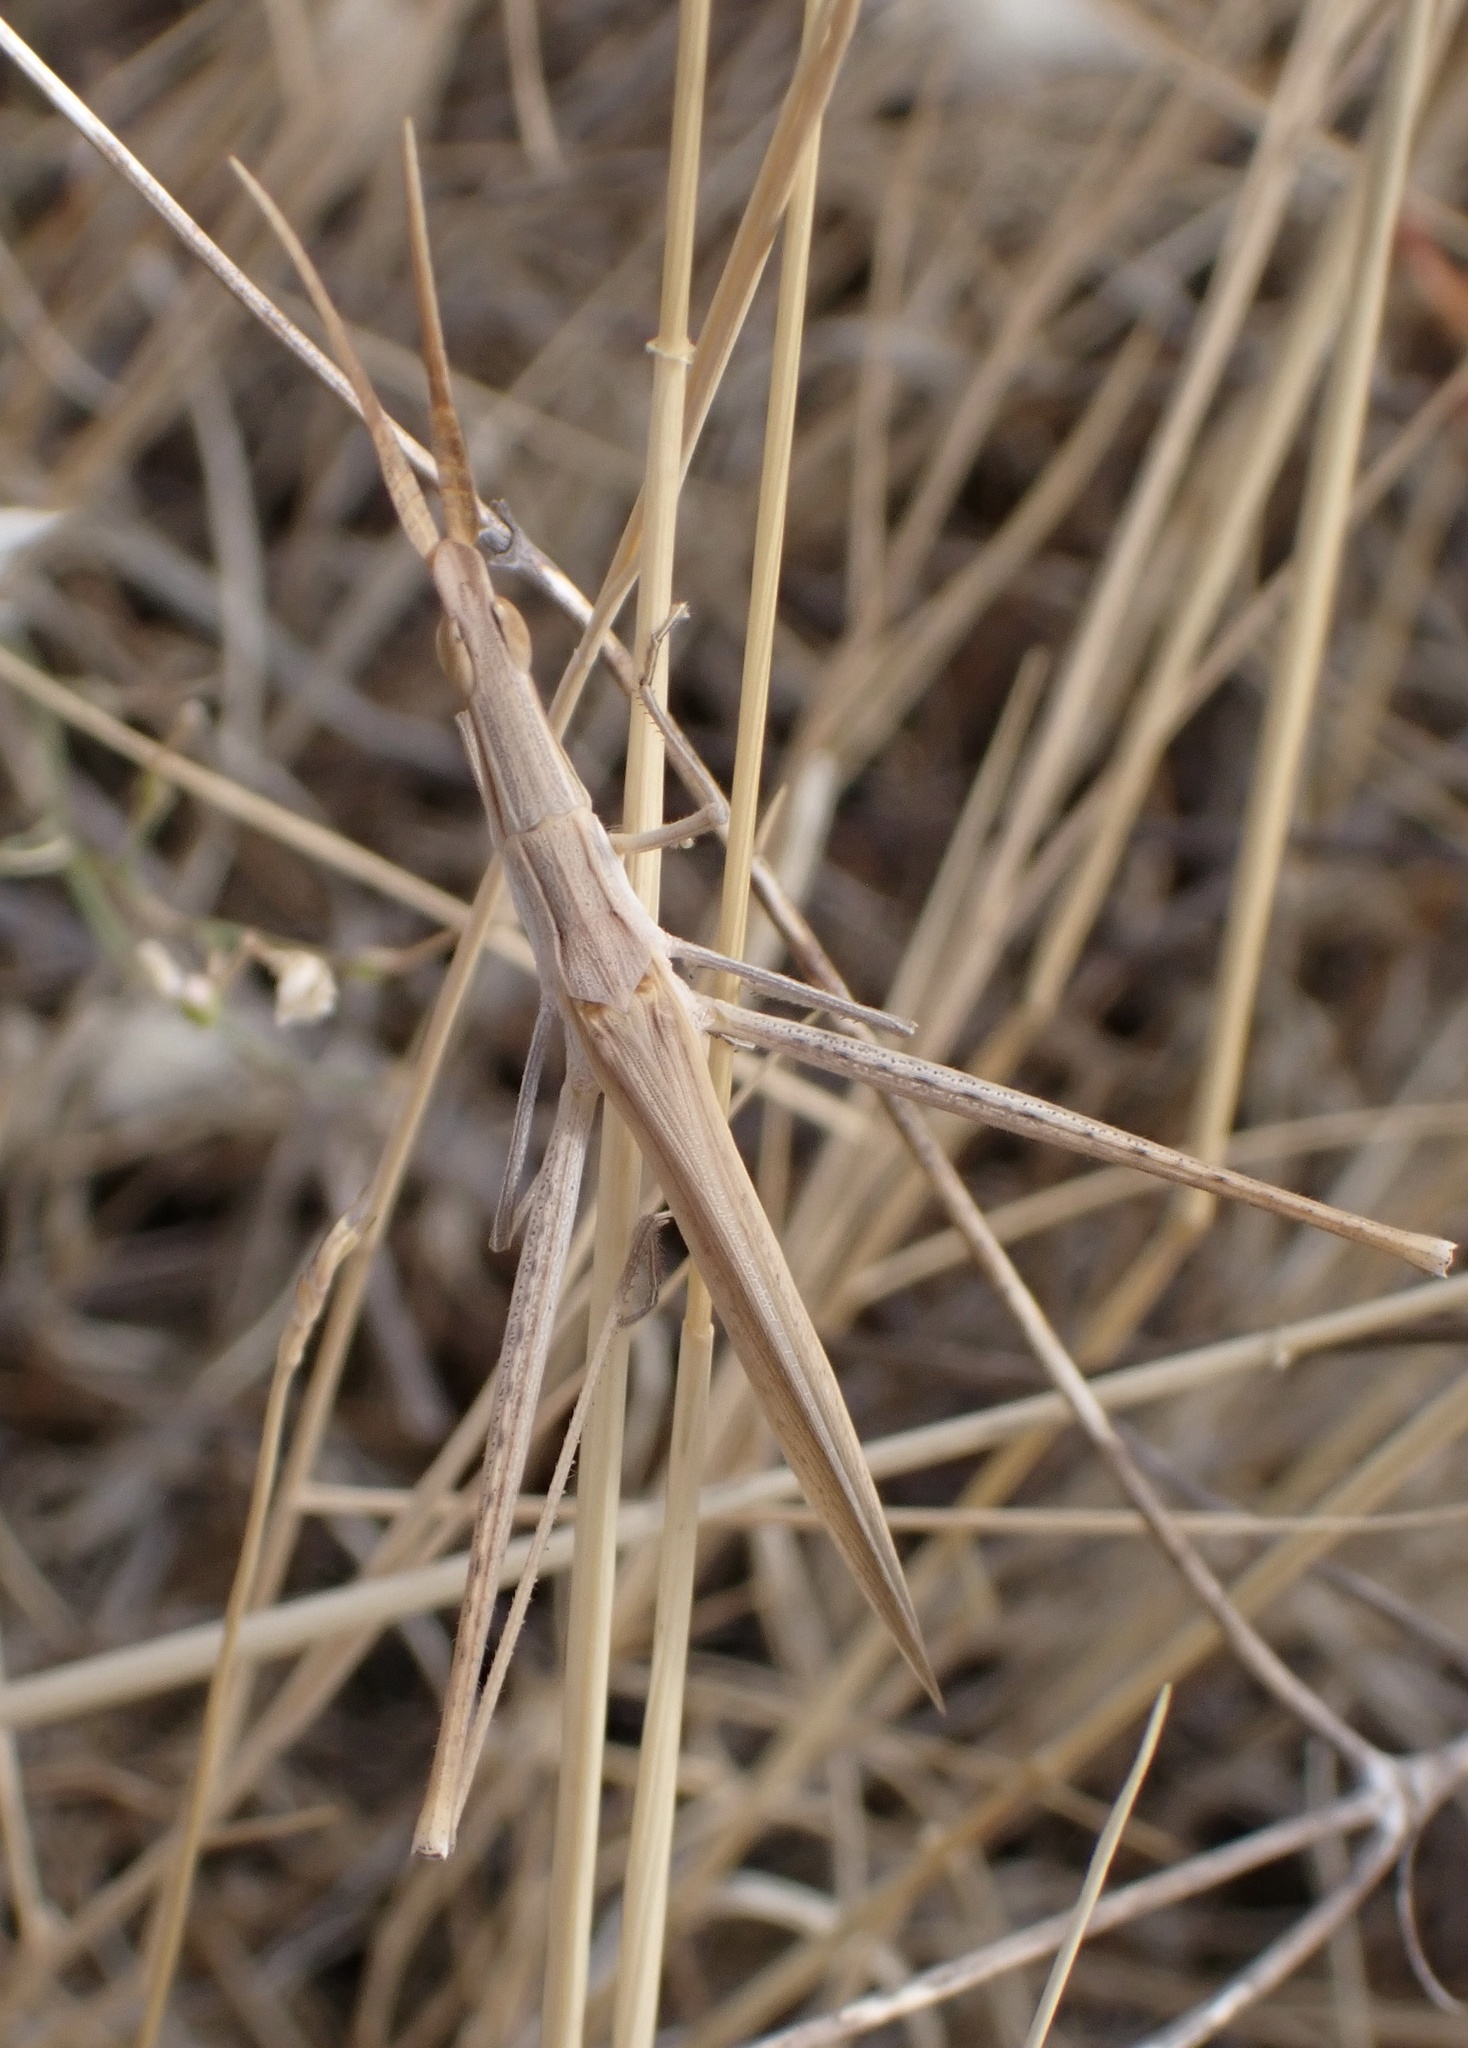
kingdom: Animalia
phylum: Arthropoda
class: Insecta
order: Orthoptera
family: Acrididae
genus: Acrida
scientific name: Acrida ungarica
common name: Common cone-headed grasshopper
